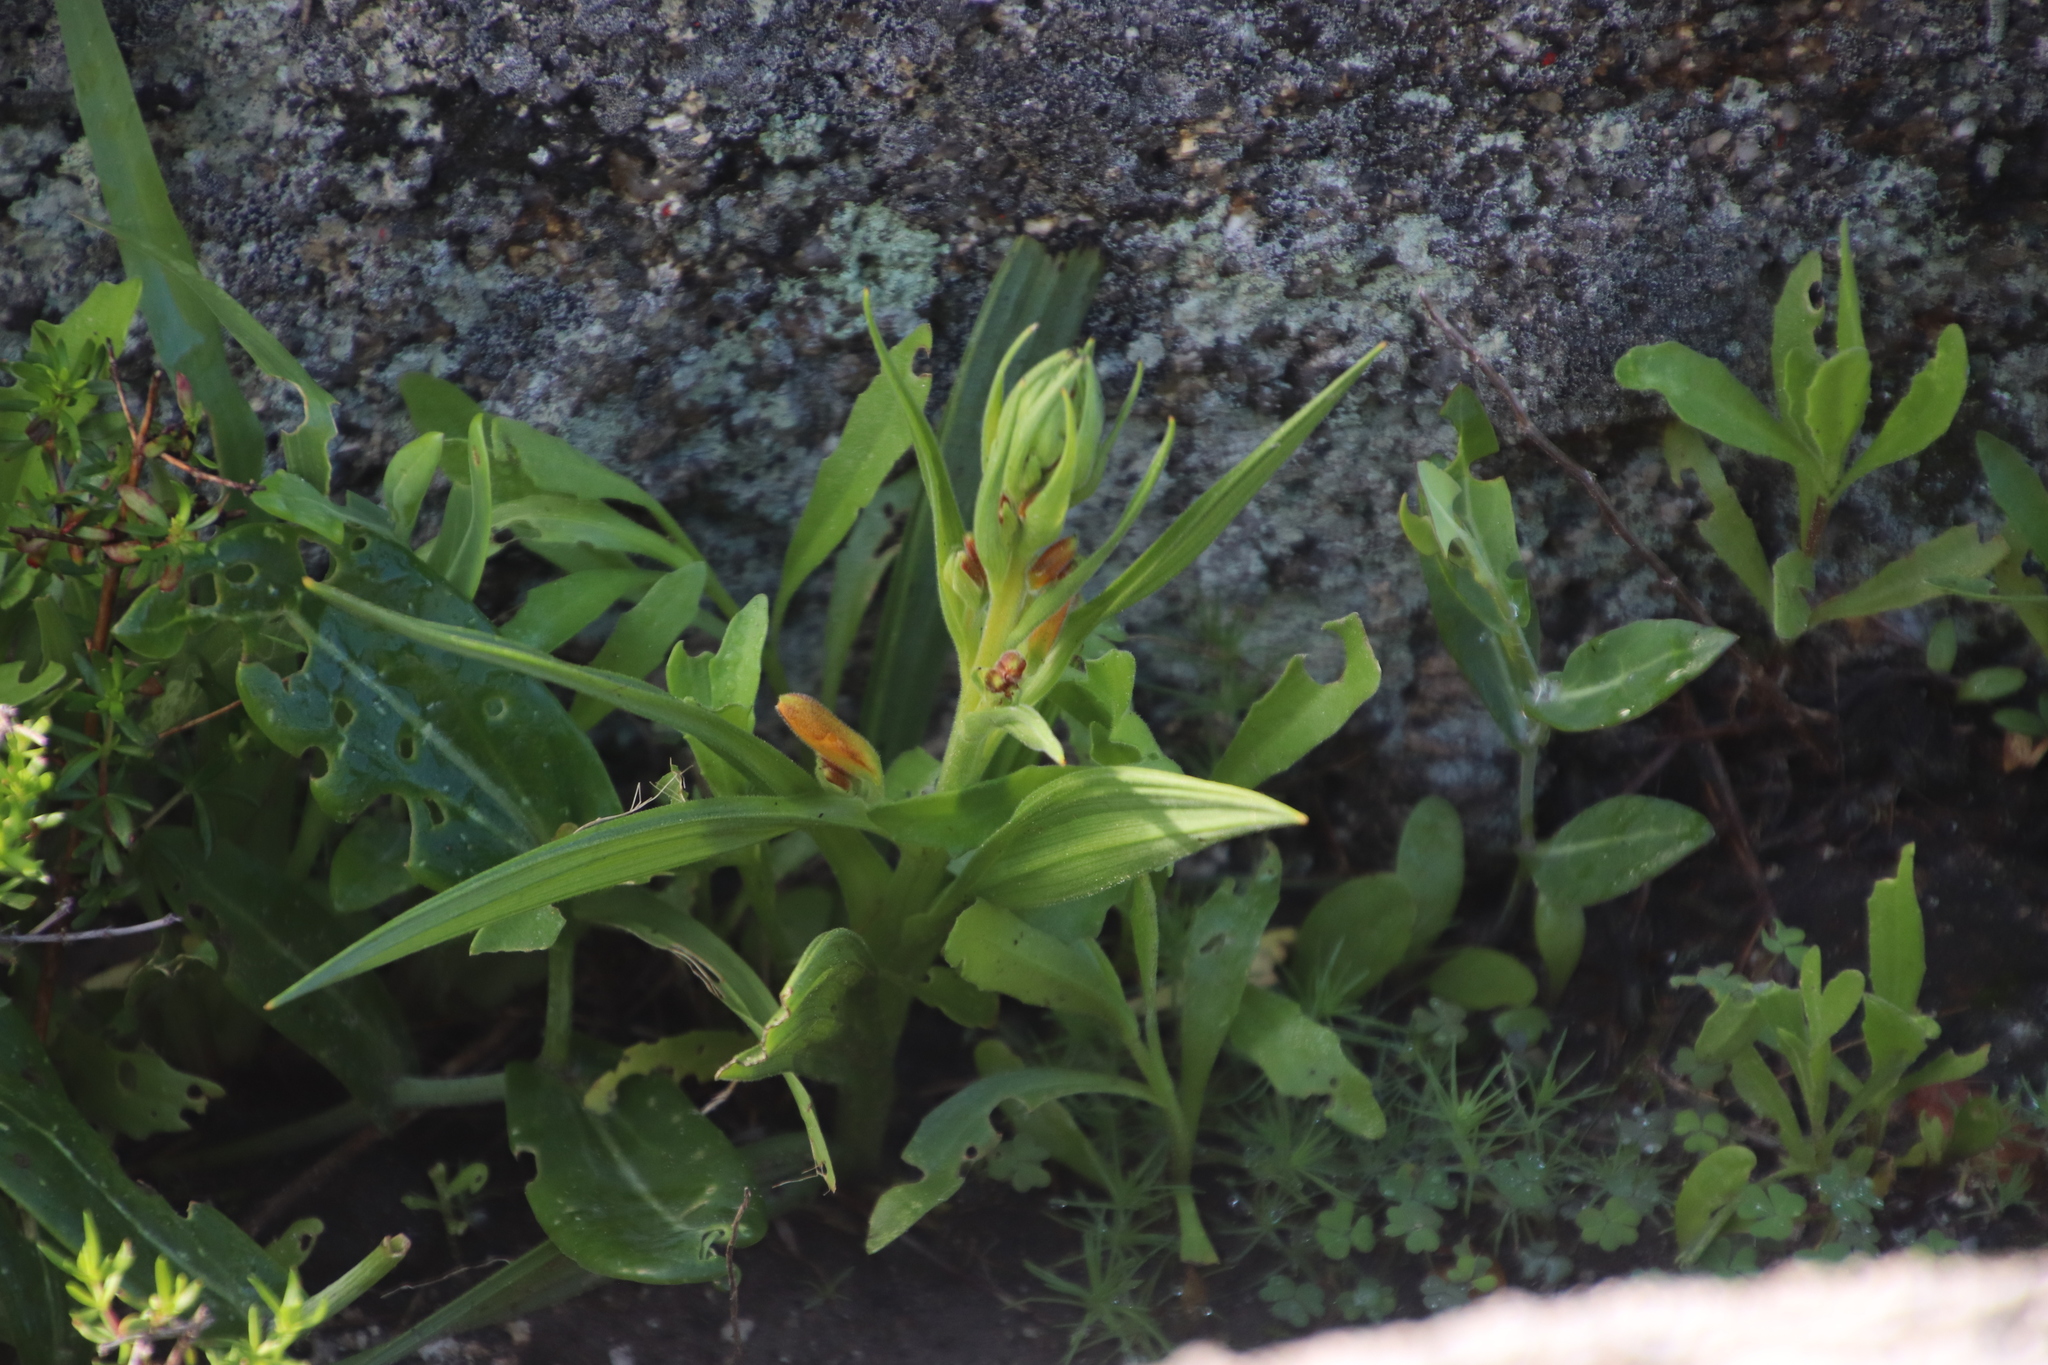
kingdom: Plantae
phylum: Tracheophyta
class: Liliopsida
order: Commelinales
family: Haemodoraceae
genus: Wachendorfia
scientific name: Wachendorfia multiflora
